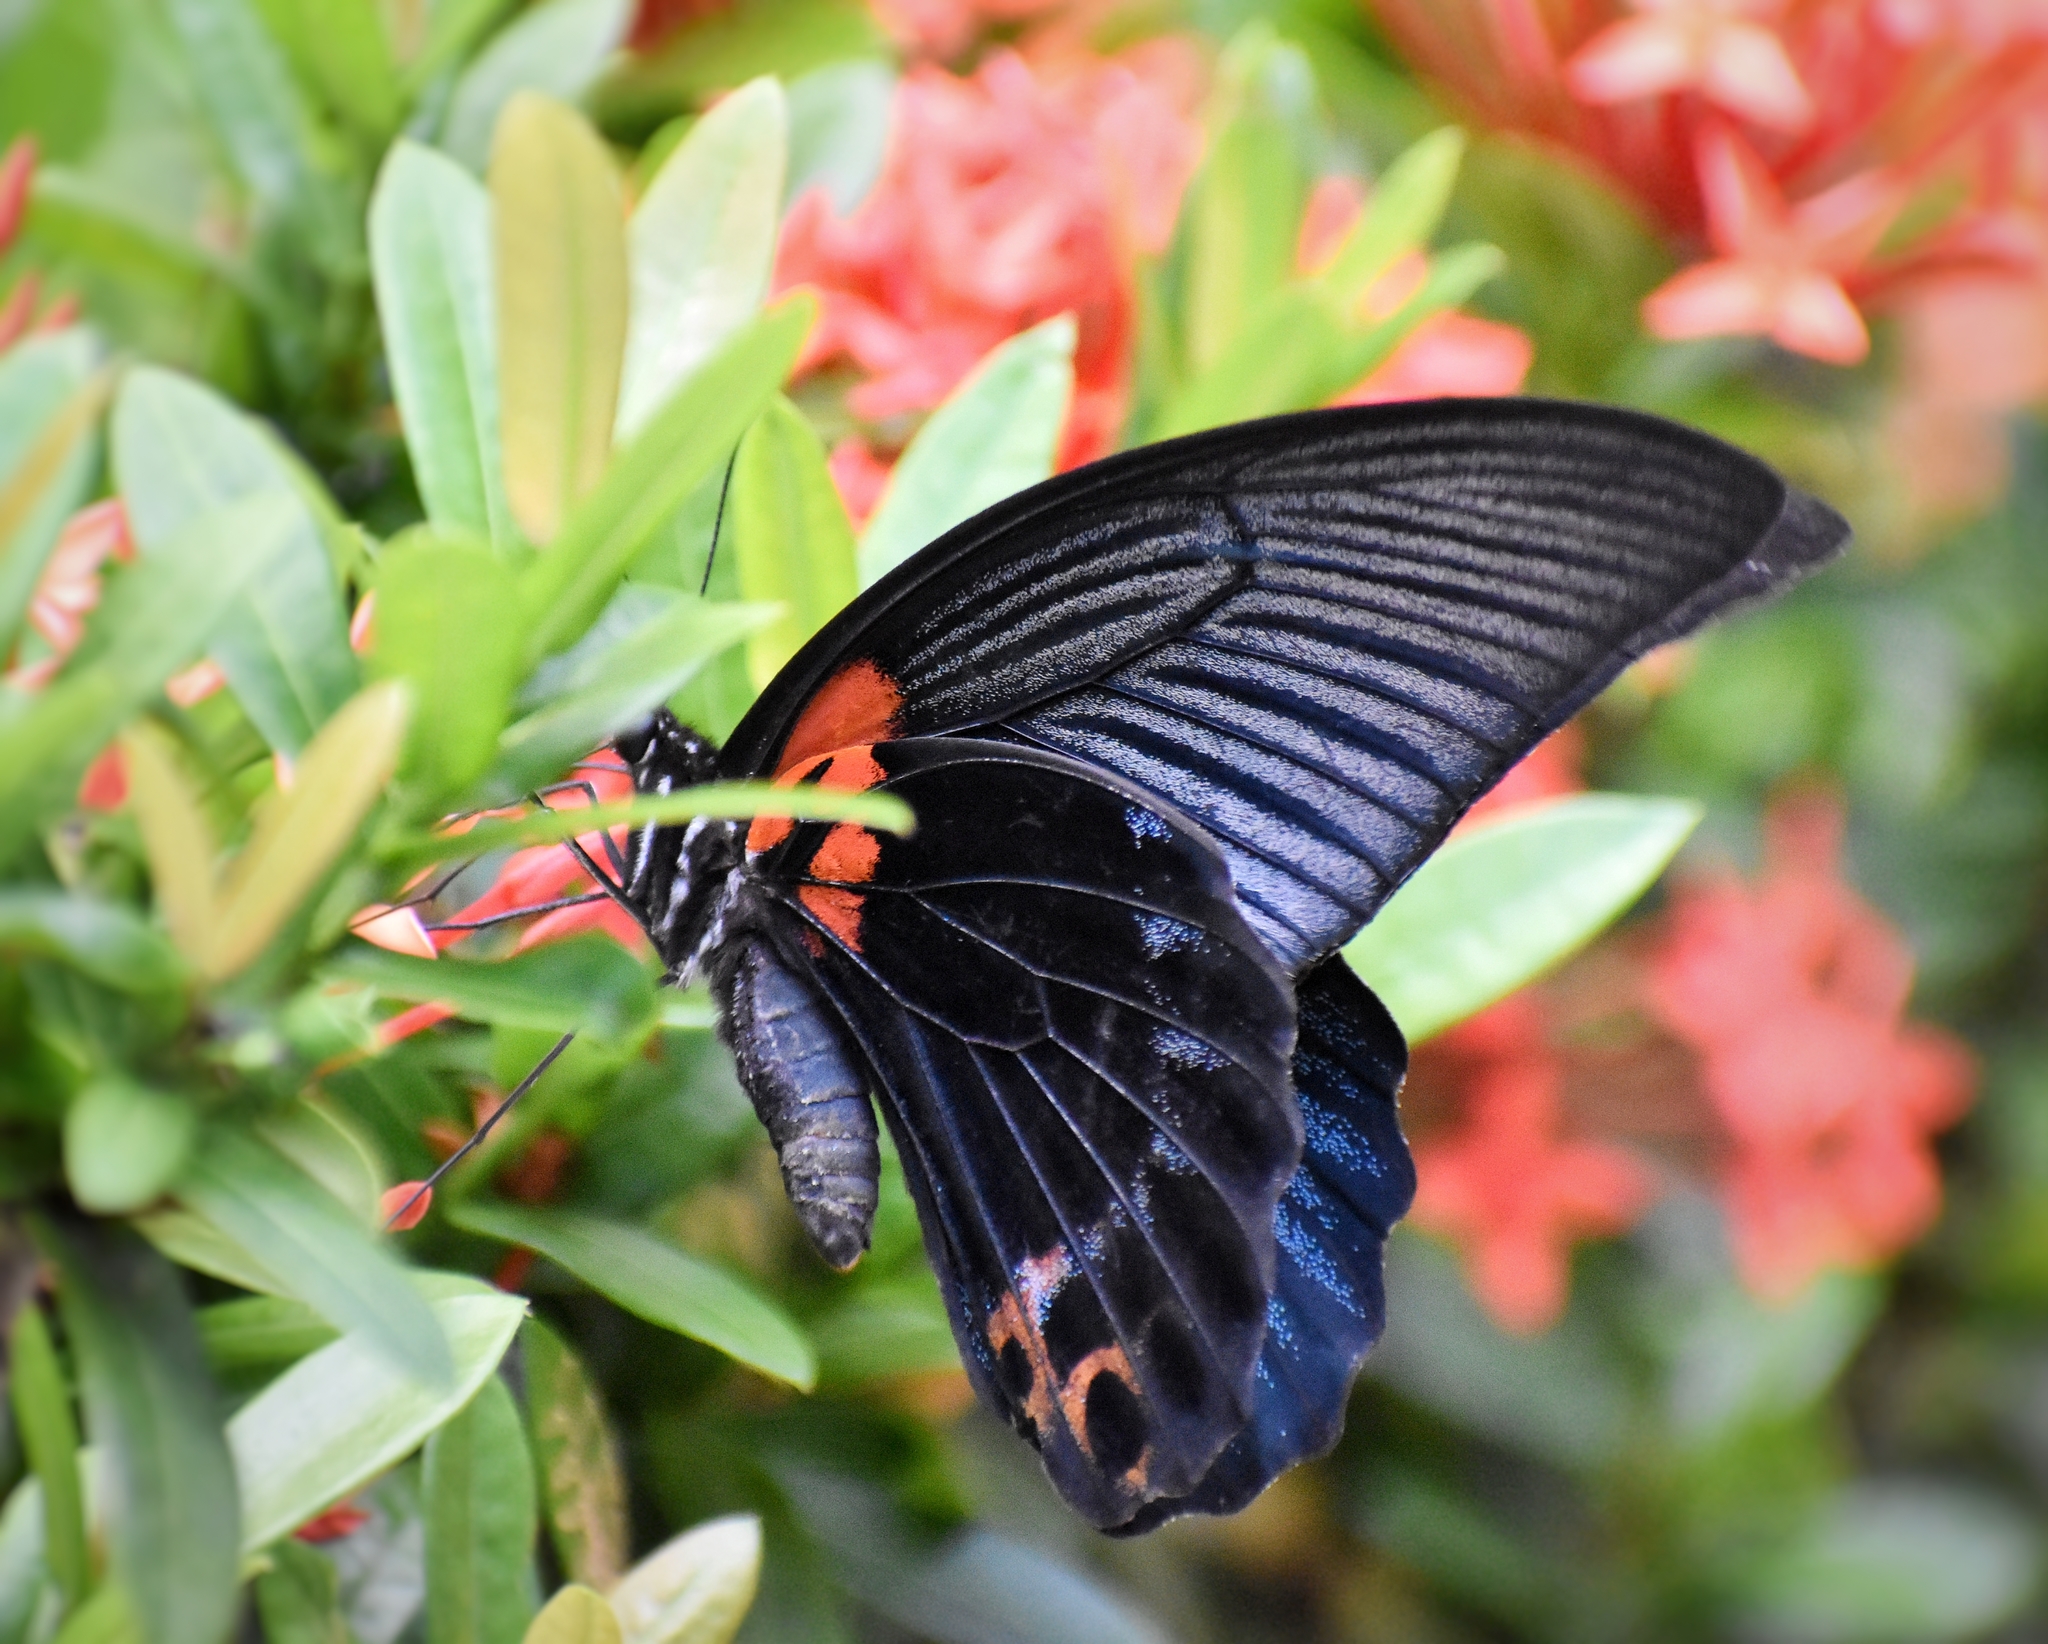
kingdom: Animalia
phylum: Arthropoda
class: Insecta
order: Lepidoptera
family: Papilionidae
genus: Papilio
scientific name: Papilio memnon
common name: Great mormon
